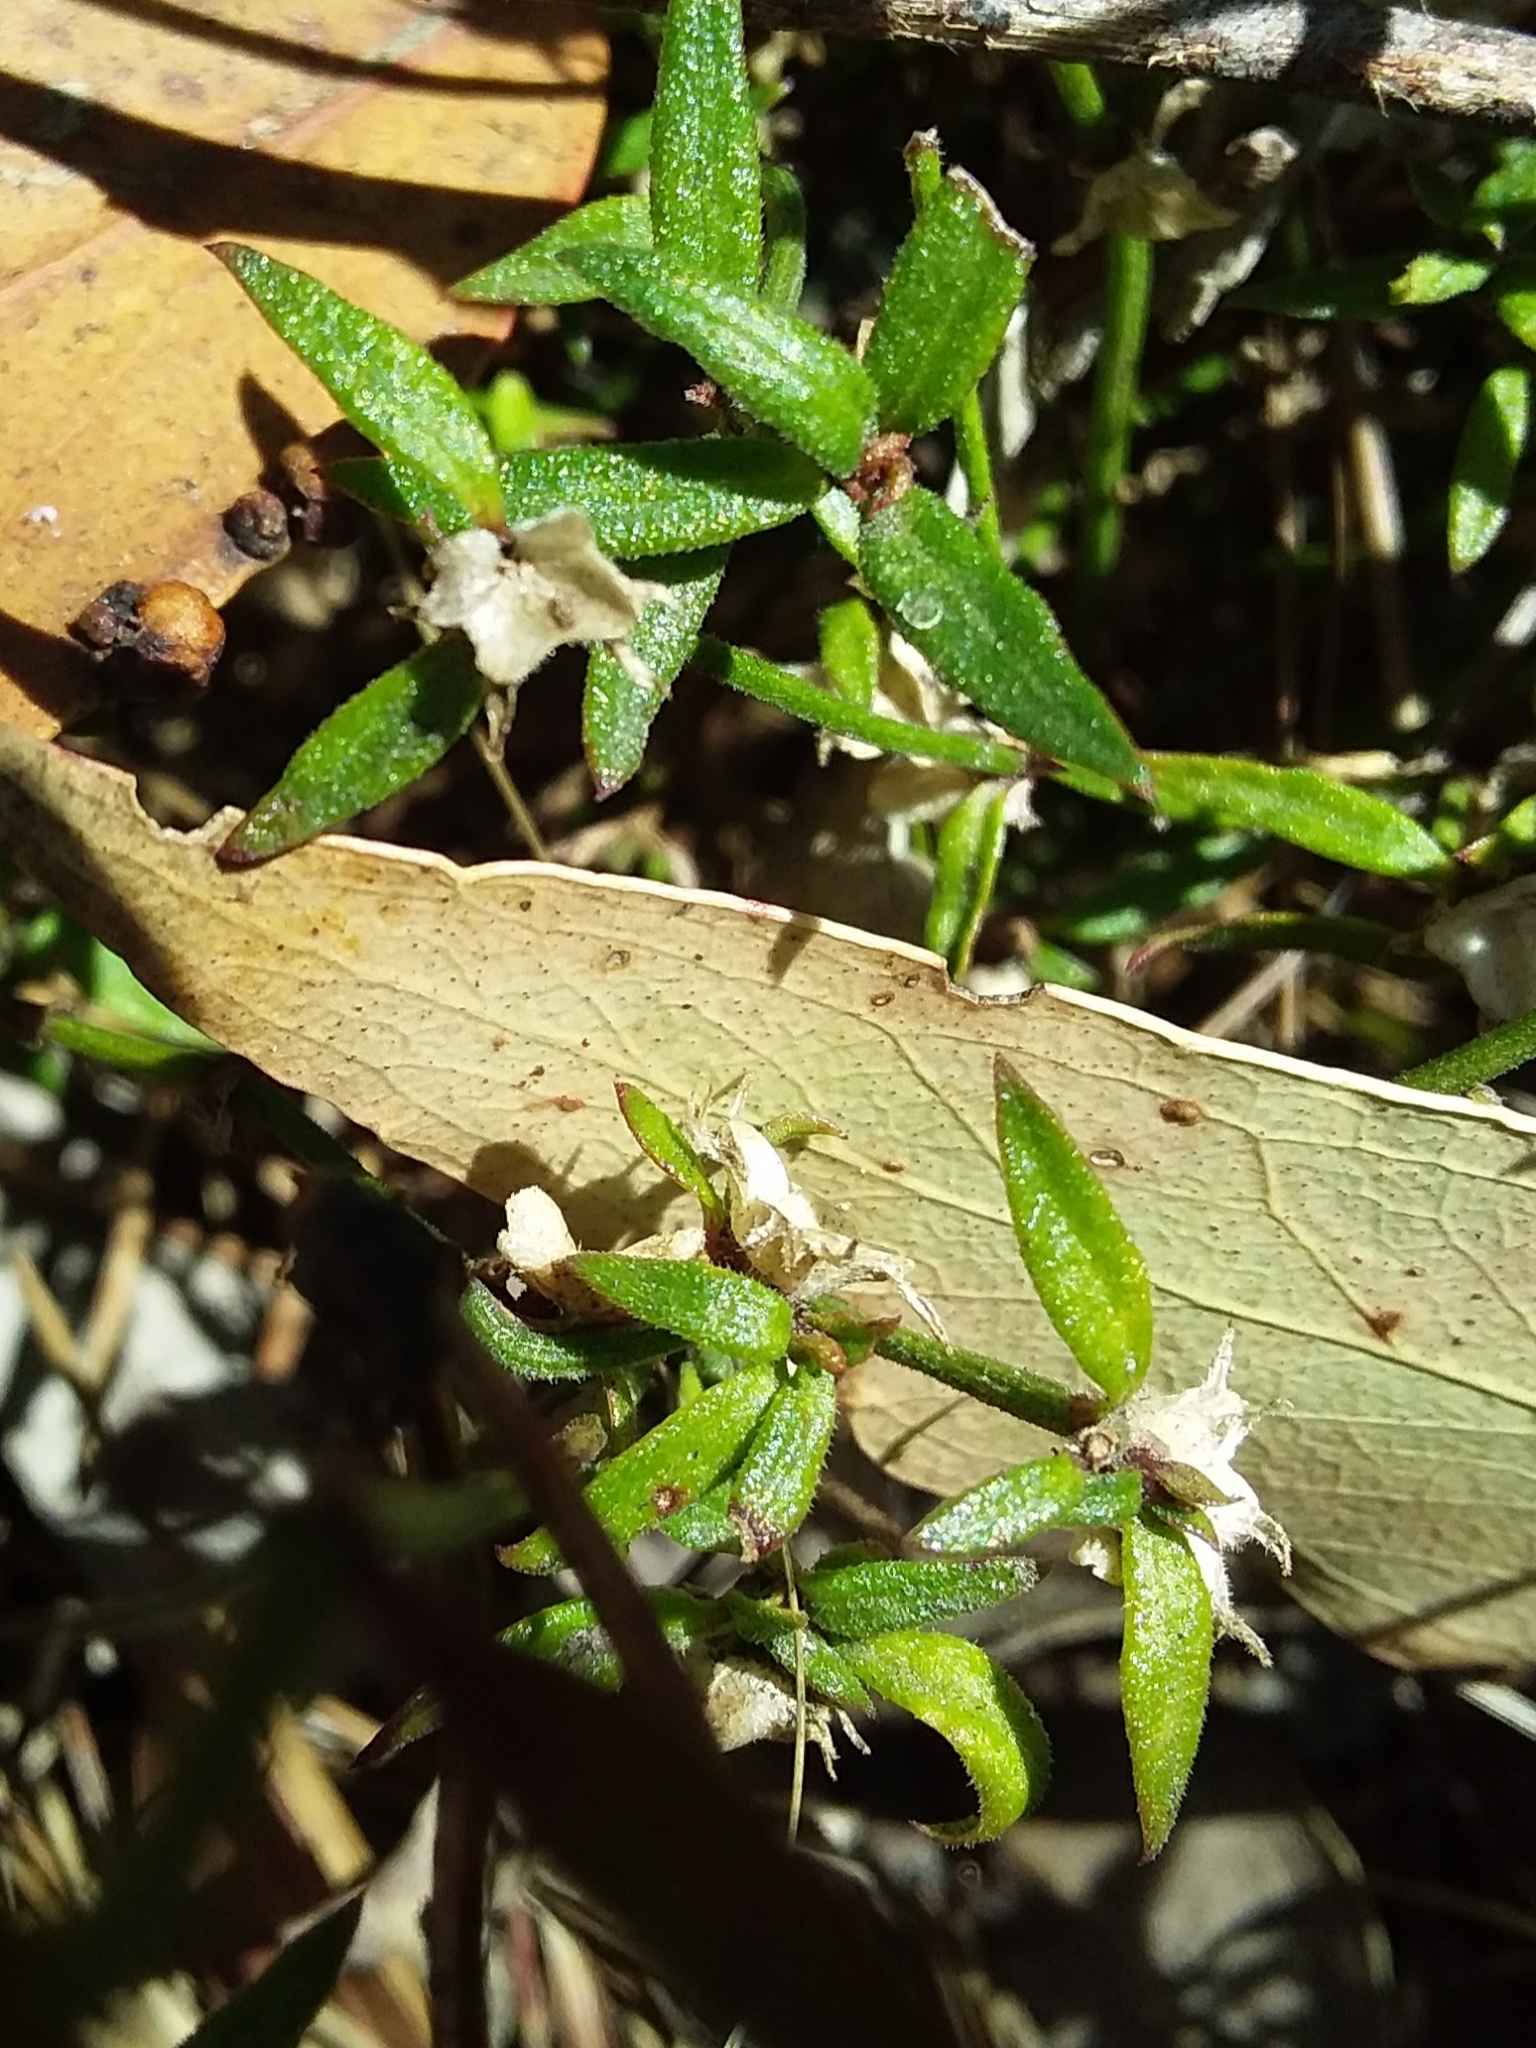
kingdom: Plantae
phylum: Tracheophyta
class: Magnoliopsida
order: Gentianales
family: Rubiaceae
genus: Opercularia
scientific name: Opercularia turpis
